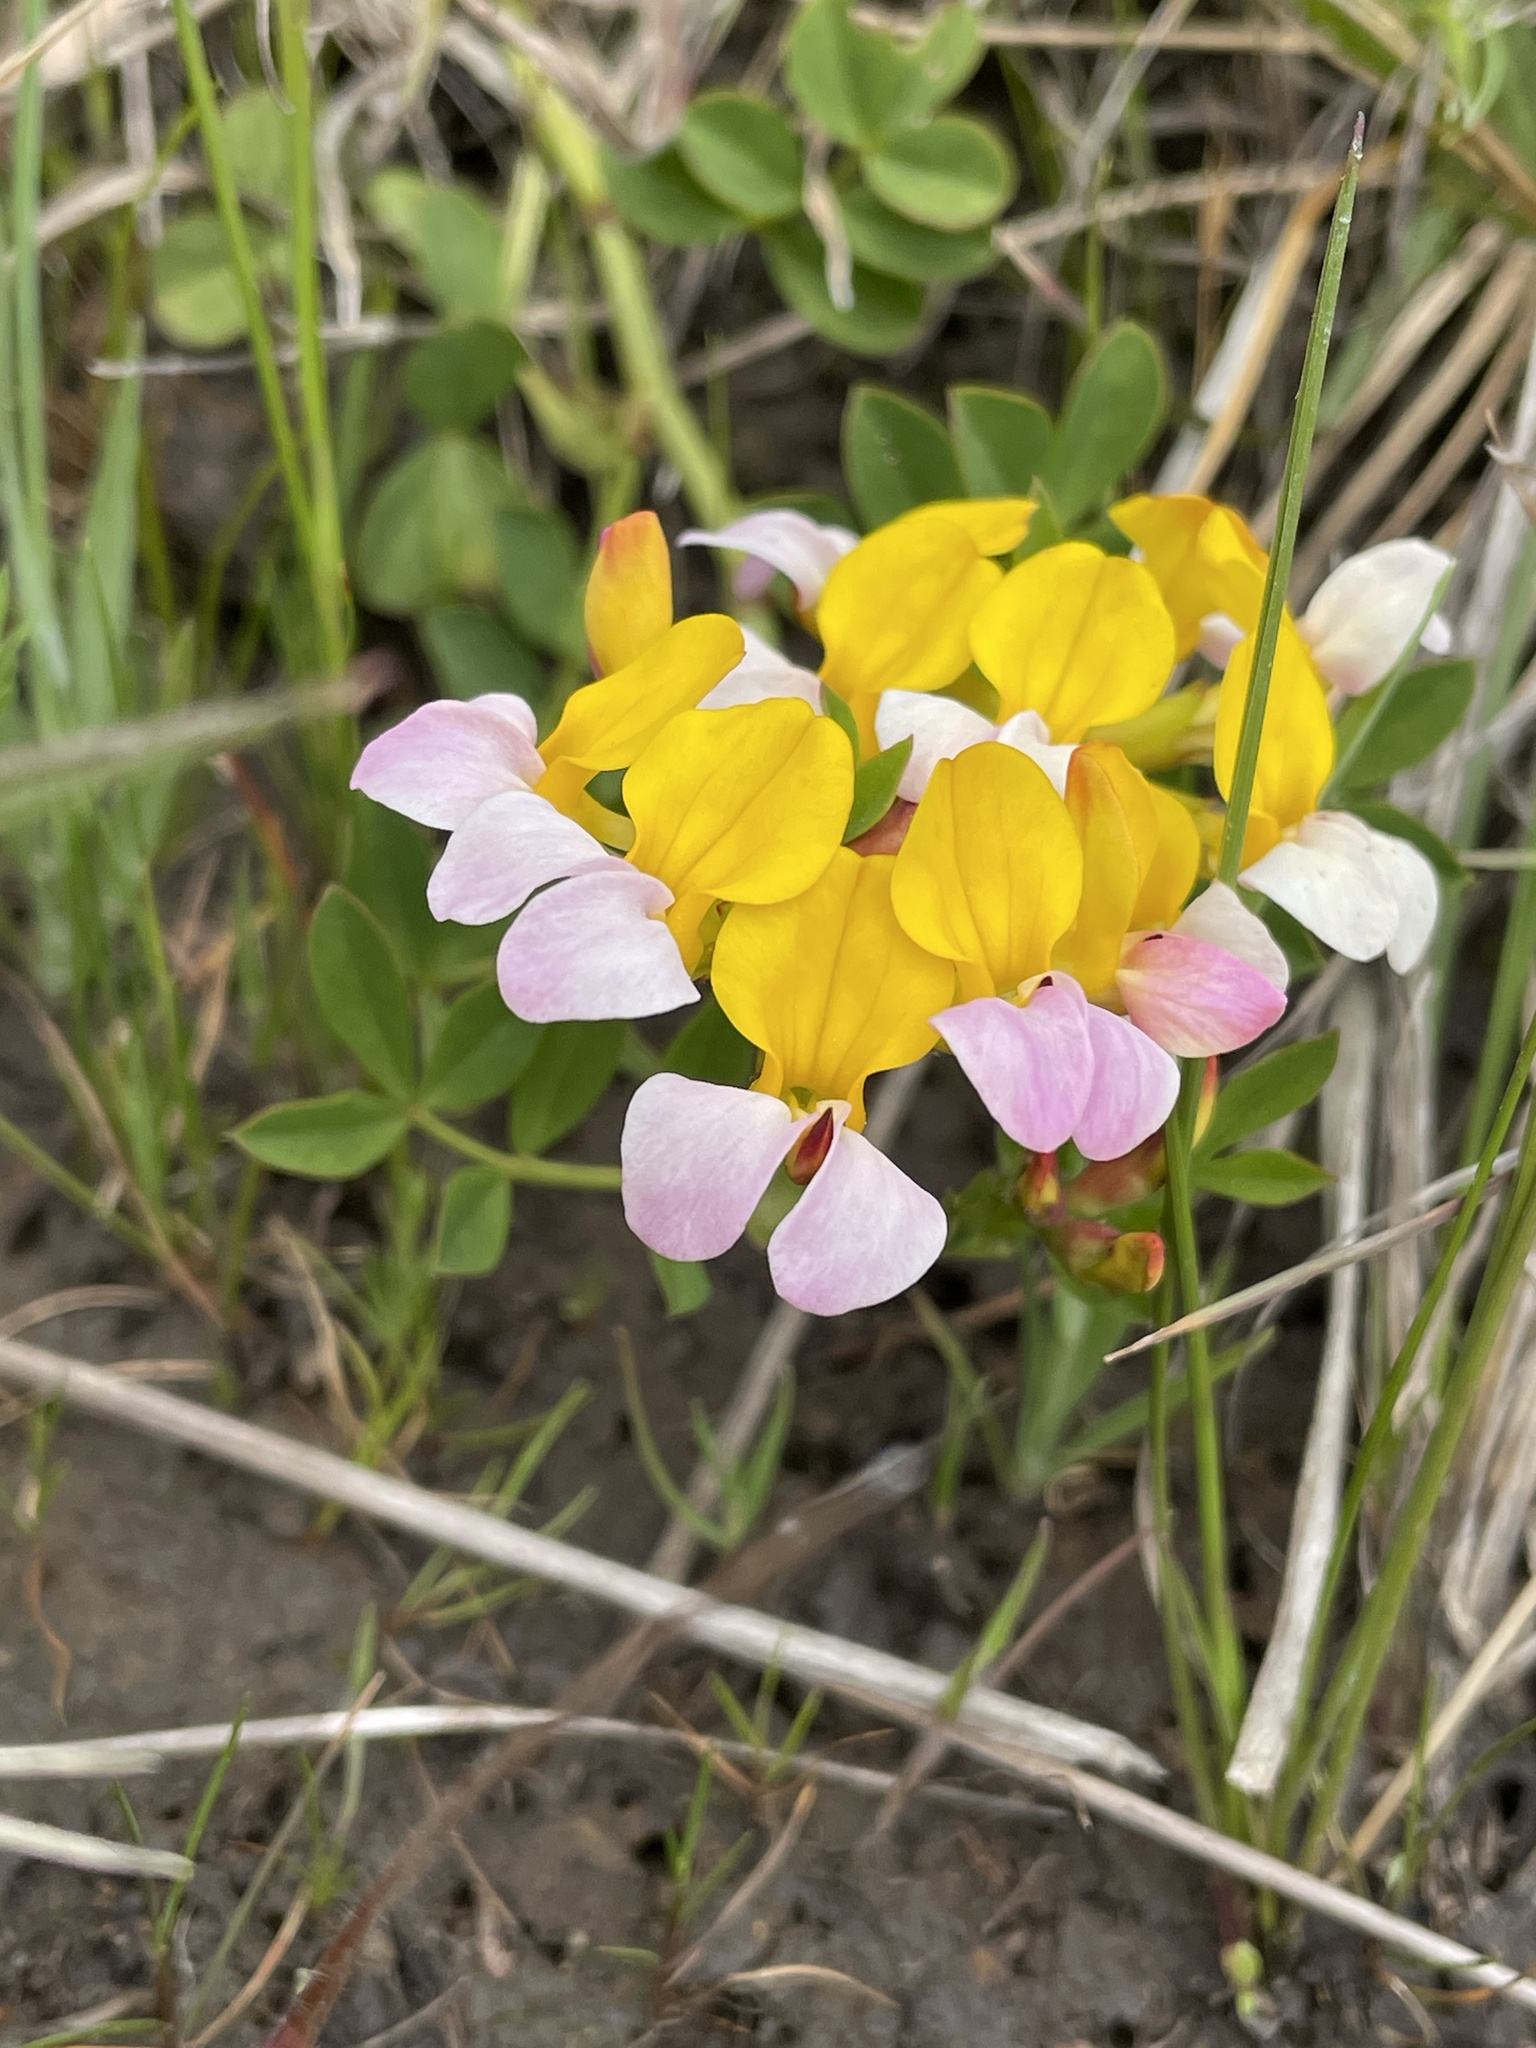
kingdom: Plantae
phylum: Tracheophyta
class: Magnoliopsida
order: Fabales
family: Fabaceae
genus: Hosackia
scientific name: Hosackia gracilis
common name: Seaside bird's-foot lotus
